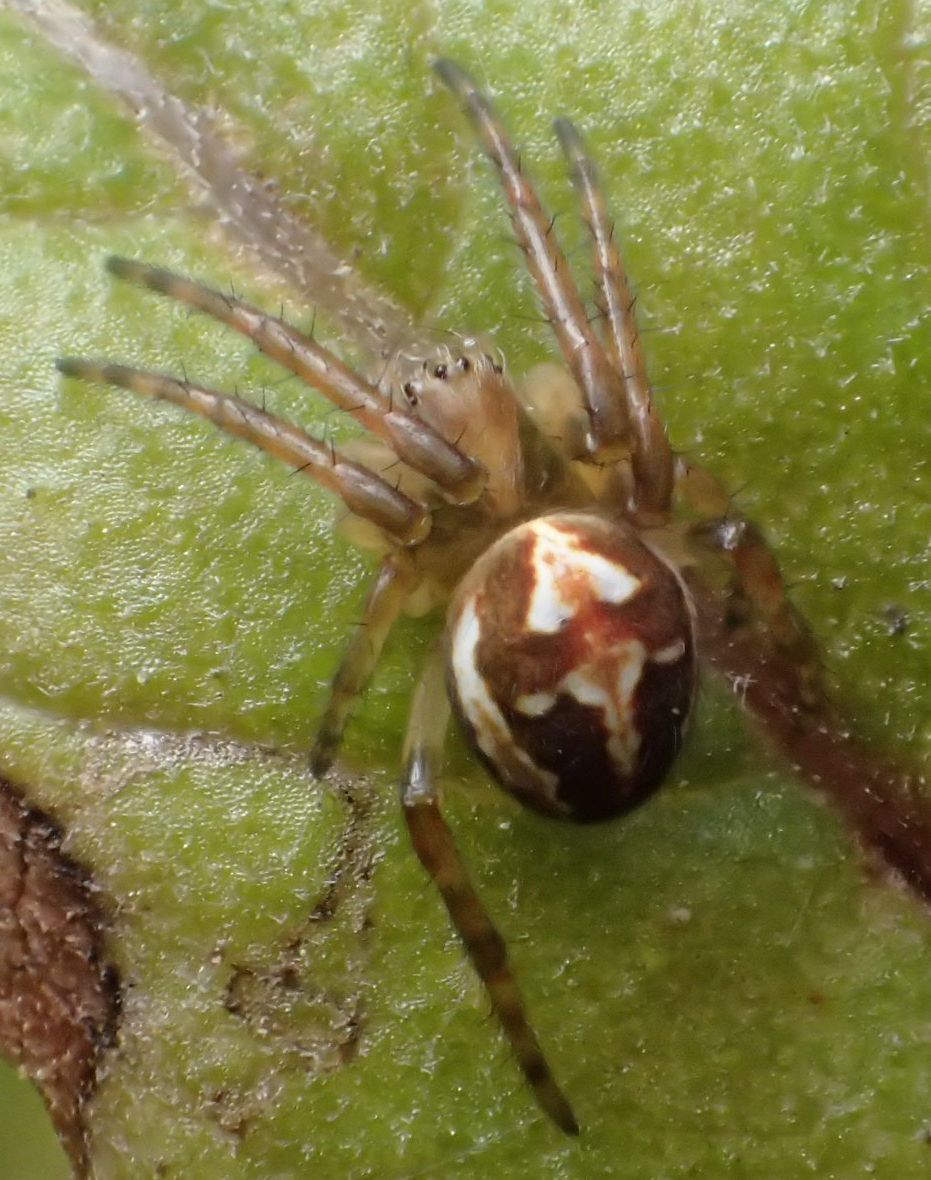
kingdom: Animalia
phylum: Arthropoda
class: Arachnida
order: Araneae
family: Araneidae
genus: Novaranea
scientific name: Novaranea queribunda
